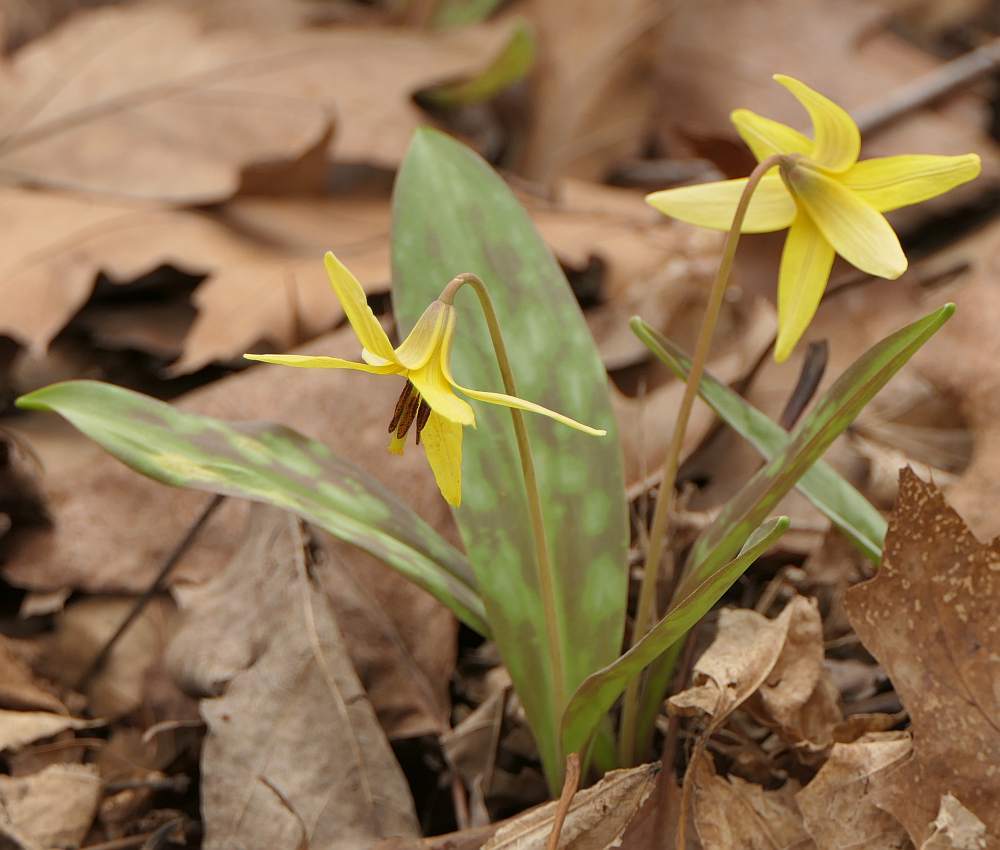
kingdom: Plantae
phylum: Tracheophyta
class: Liliopsida
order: Liliales
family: Liliaceae
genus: Erythronium
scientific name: Erythronium americanum
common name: Yellow adder's-tongue
